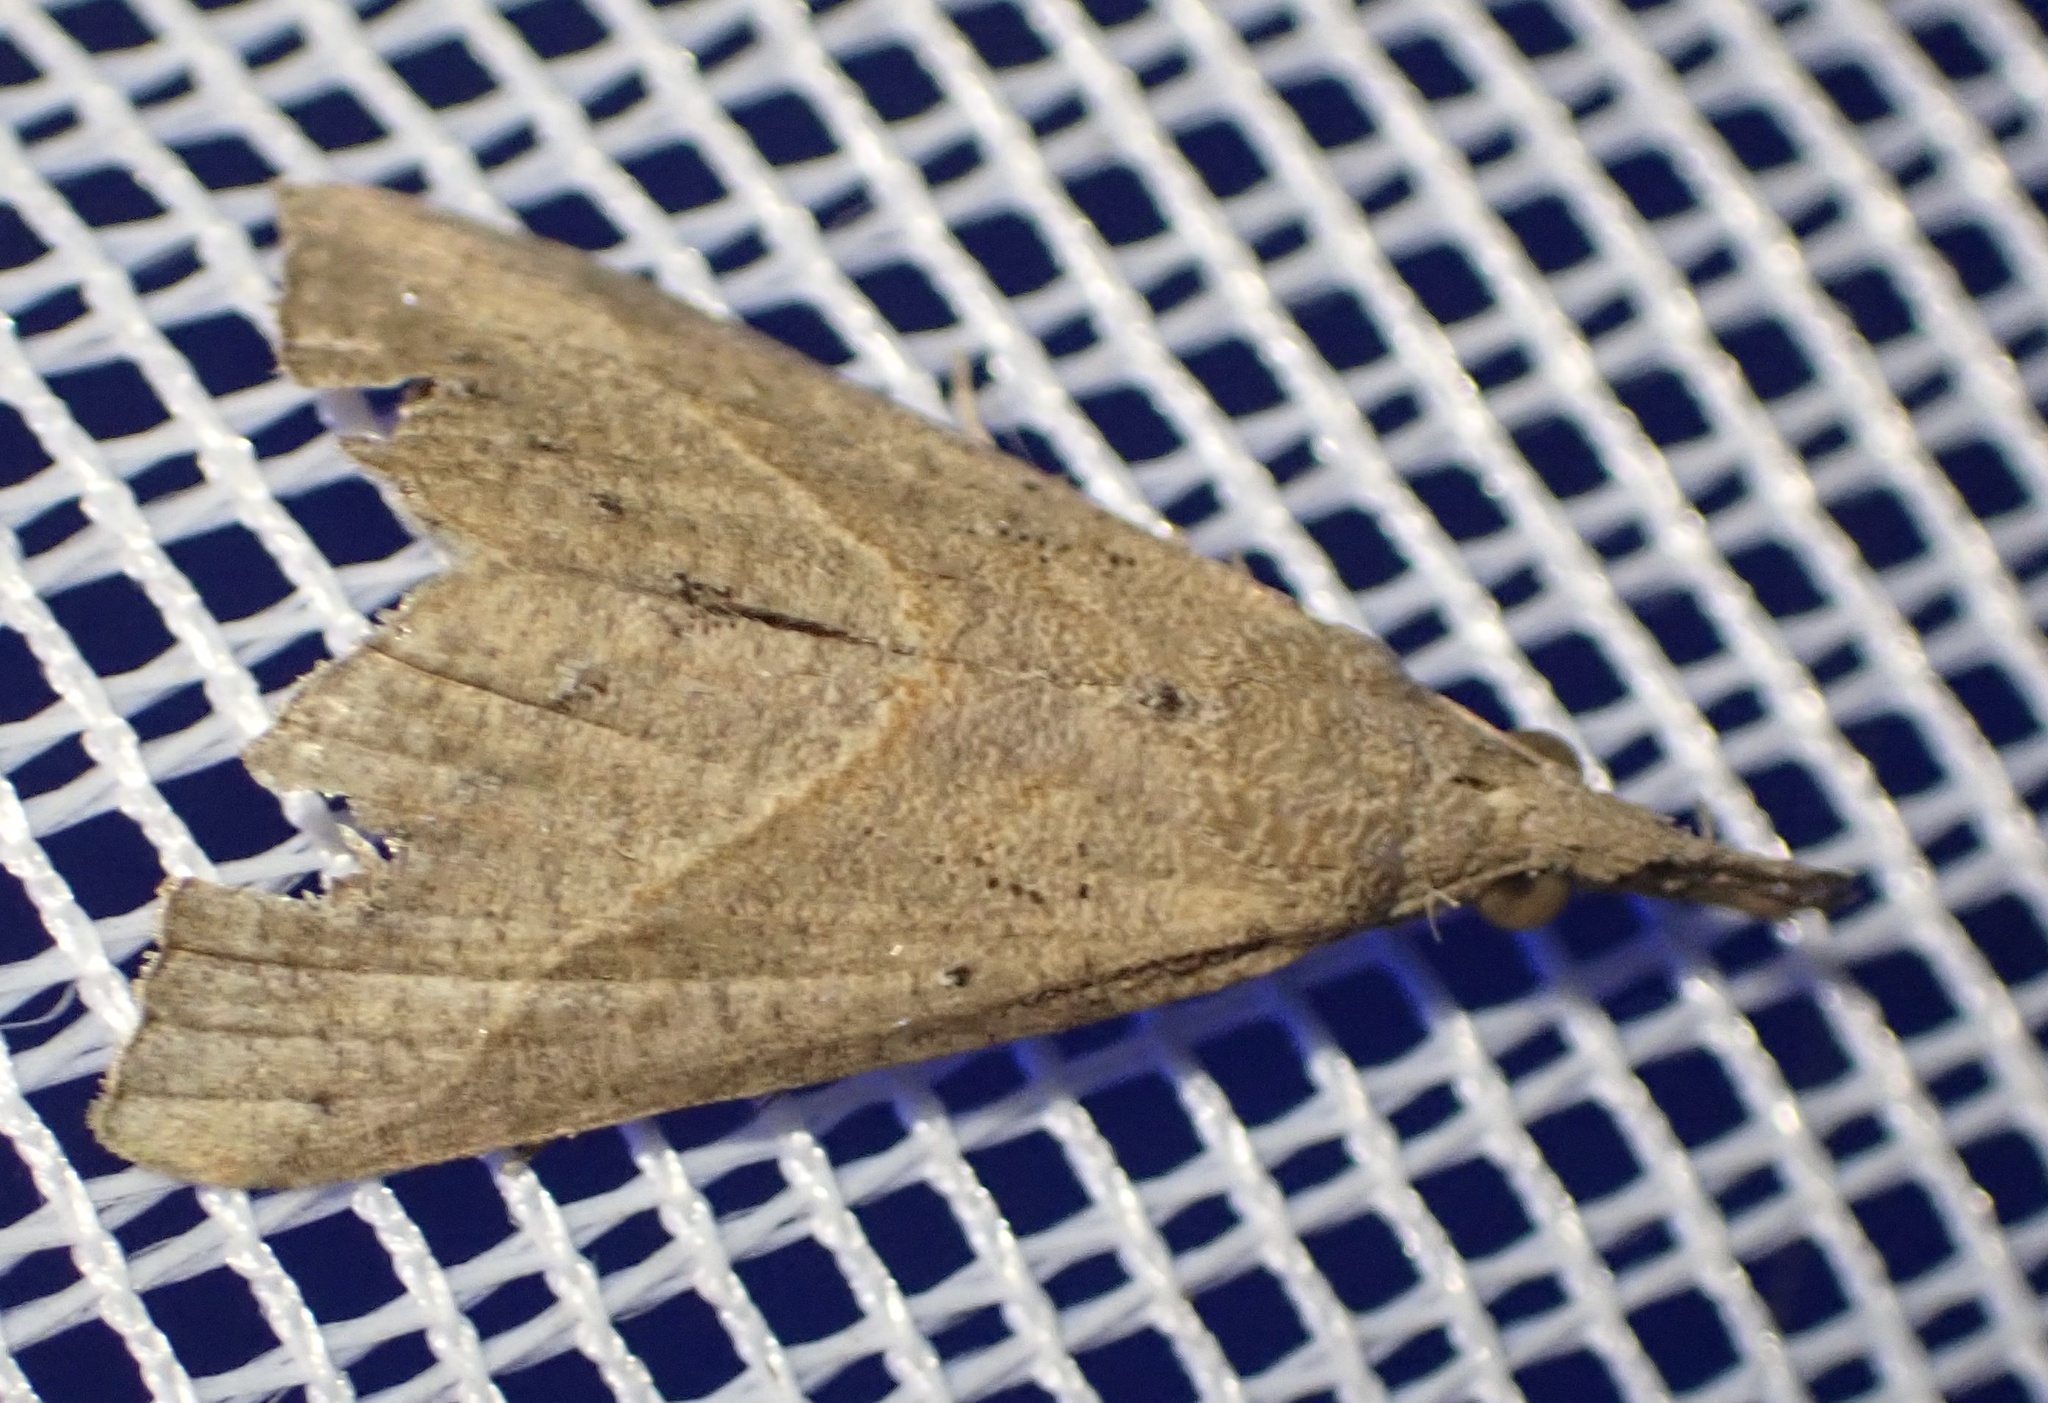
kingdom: Animalia
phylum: Arthropoda
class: Insecta
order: Lepidoptera
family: Erebidae
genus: Hypena
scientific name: Hypena lividalis
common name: Chevron snout
